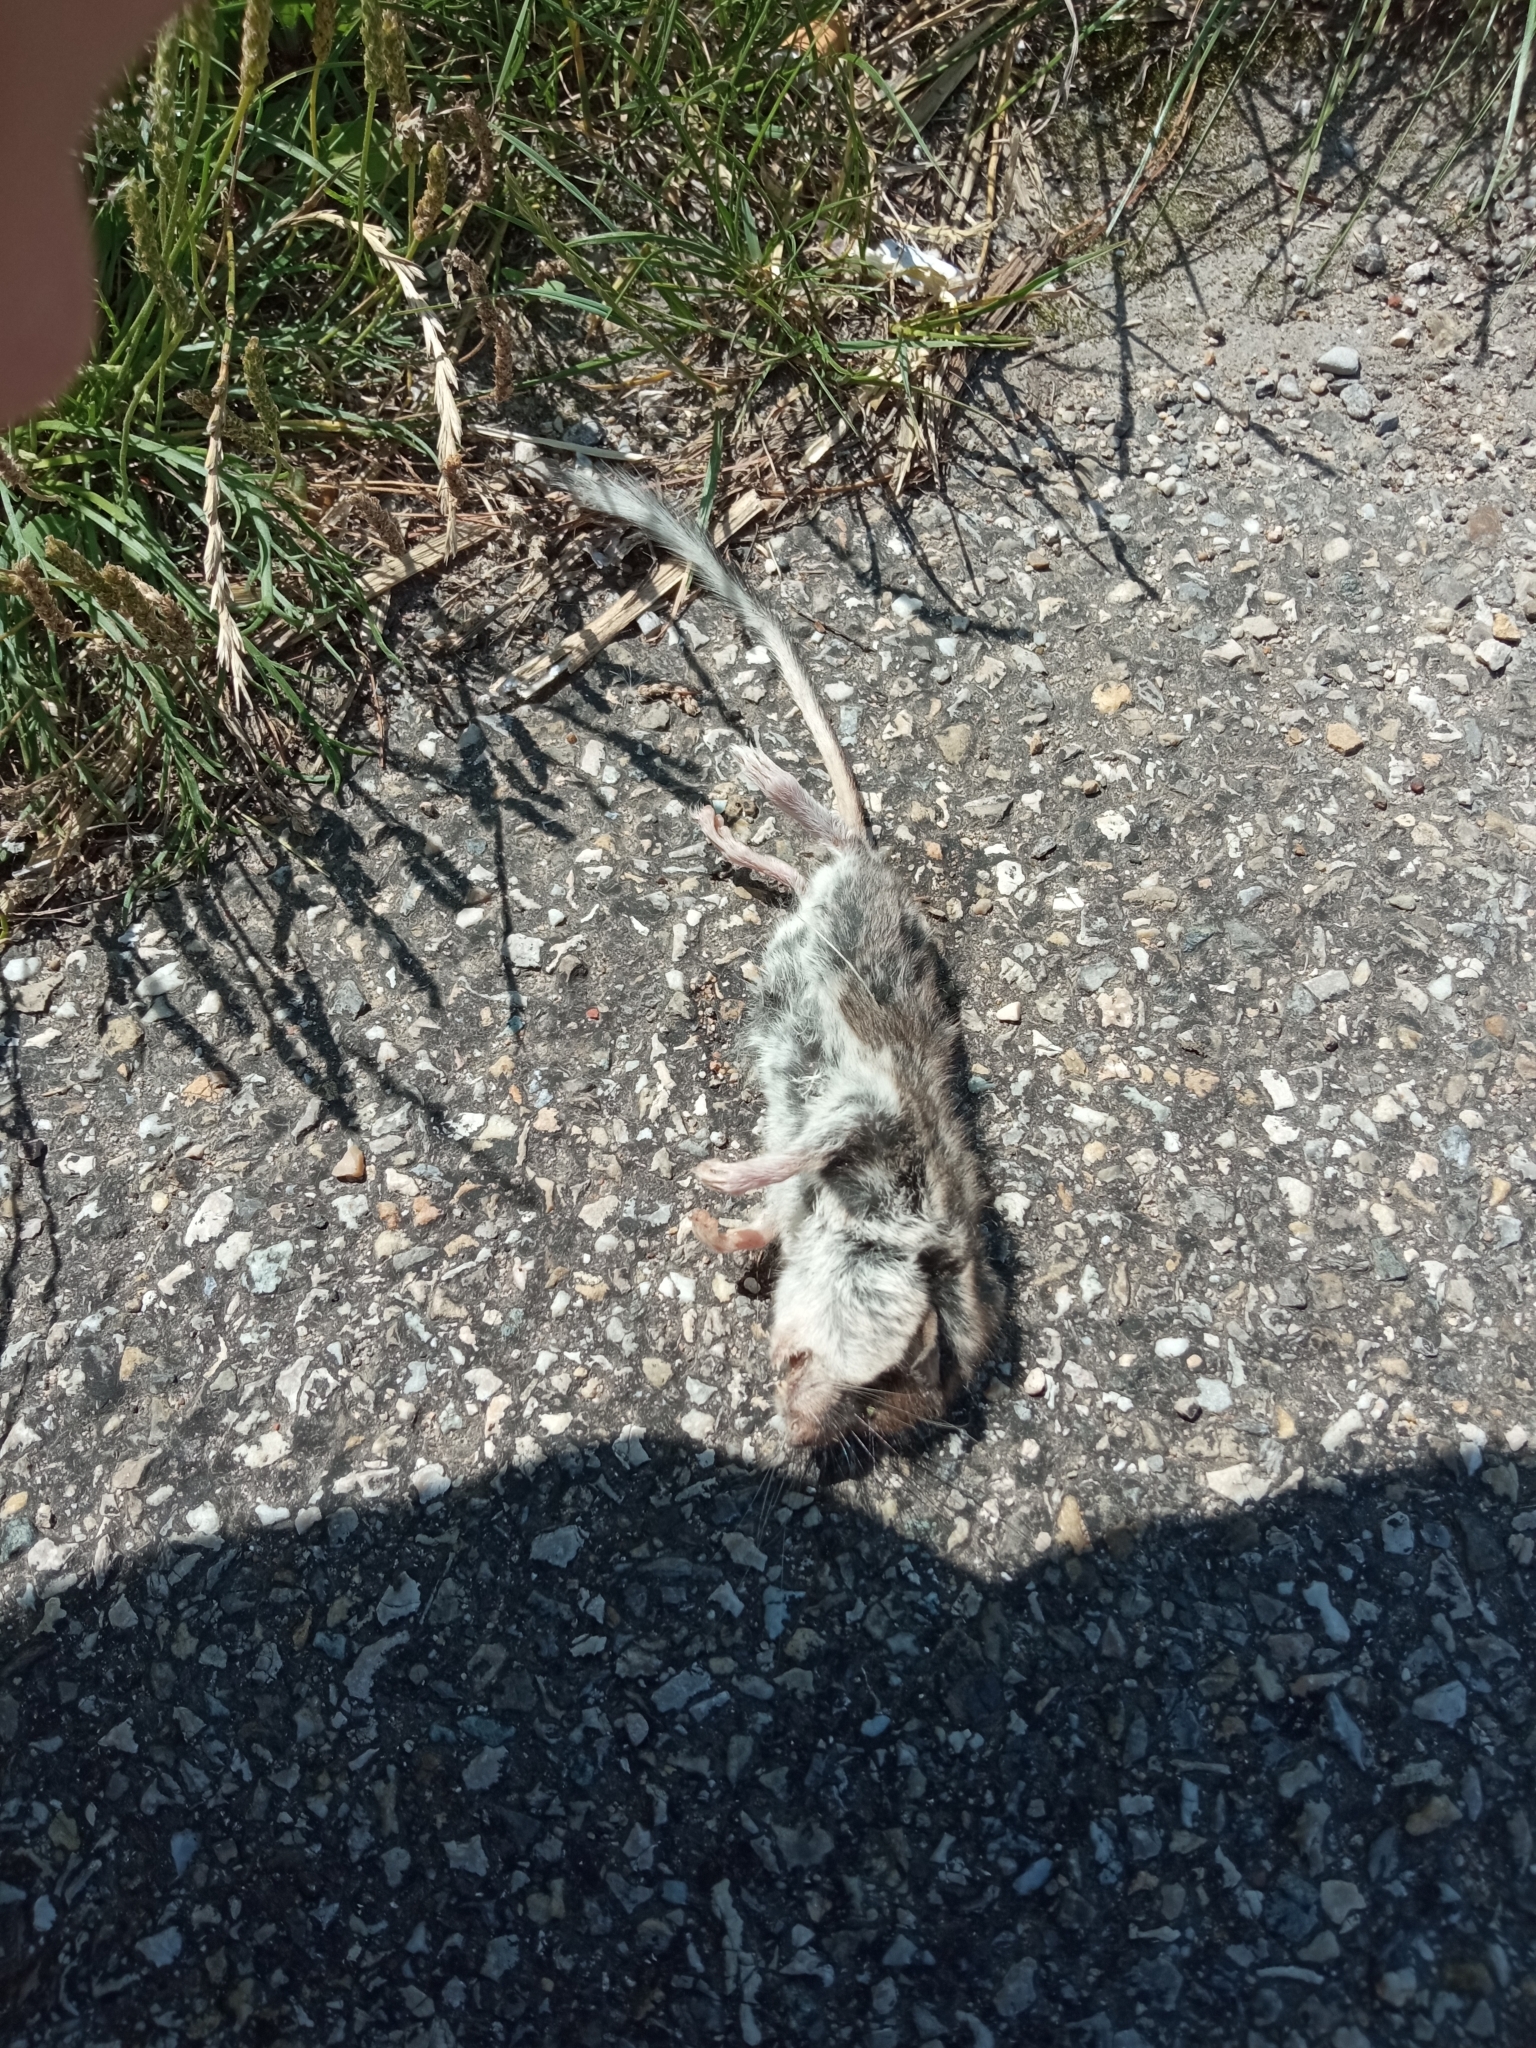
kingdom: Animalia
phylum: Chordata
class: Mammalia
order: Rodentia
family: Gliridae
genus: Eliomys
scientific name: Eliomys quercinus
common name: Garden dormouse
